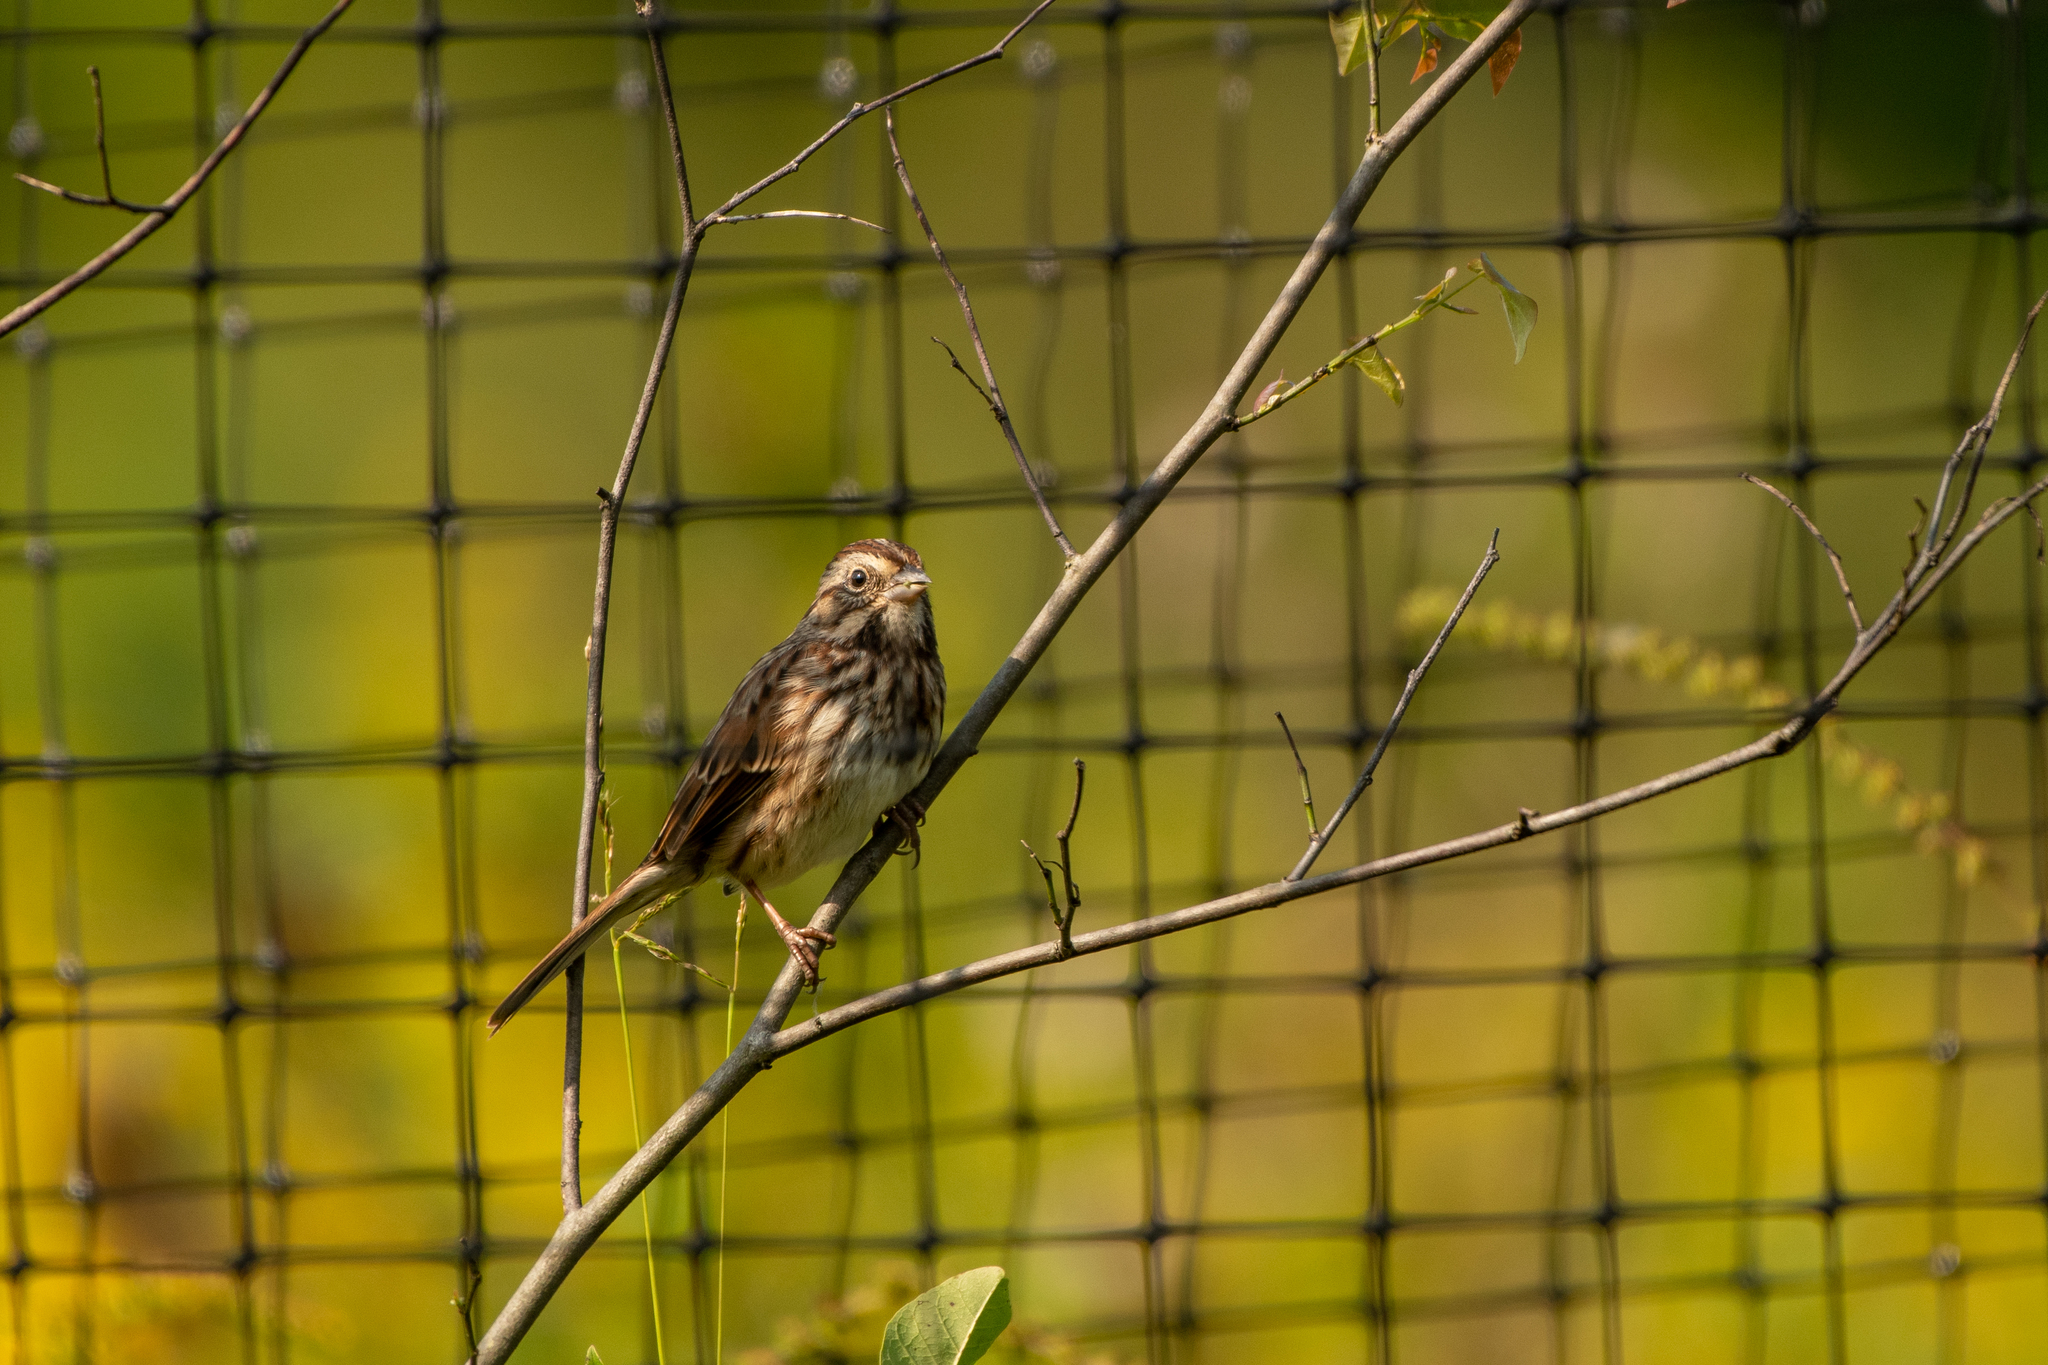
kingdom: Animalia
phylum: Chordata
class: Aves
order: Passeriformes
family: Passerellidae
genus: Melospiza
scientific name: Melospiza melodia
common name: Song sparrow
